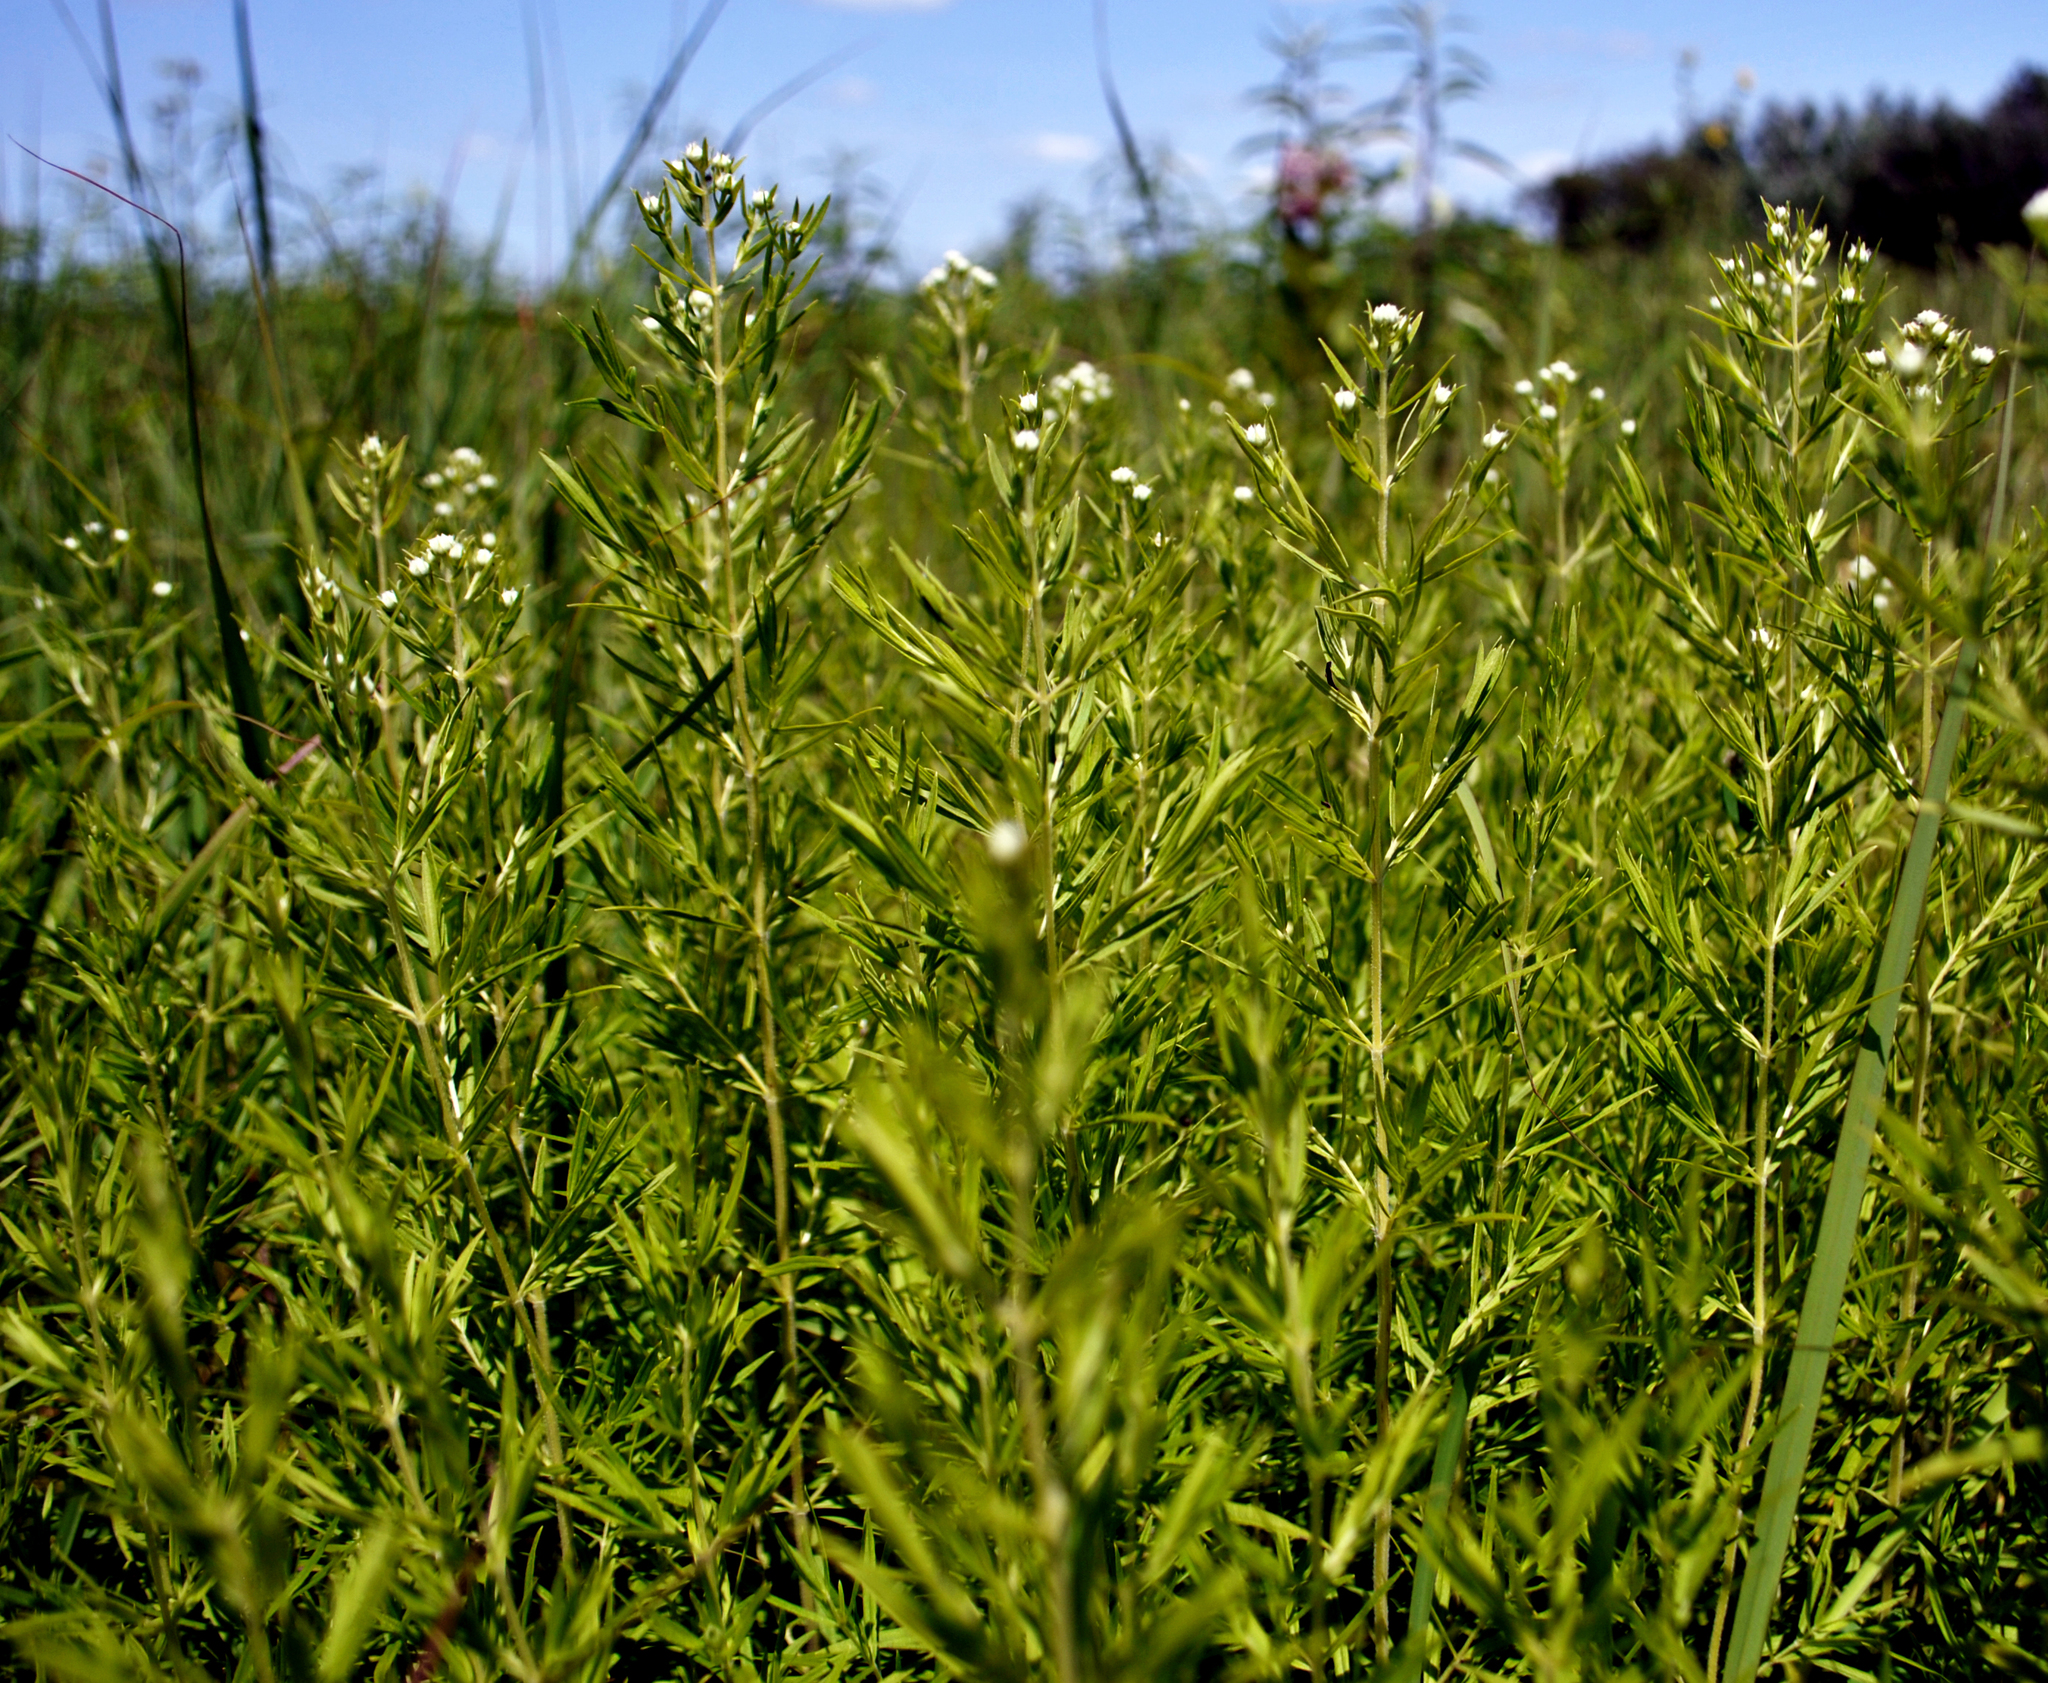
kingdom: Plantae
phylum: Tracheophyta
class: Magnoliopsida
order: Lamiales
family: Lamiaceae
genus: Pycnanthemum
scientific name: Pycnanthemum virginianum
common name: Virginia mountain-mint
